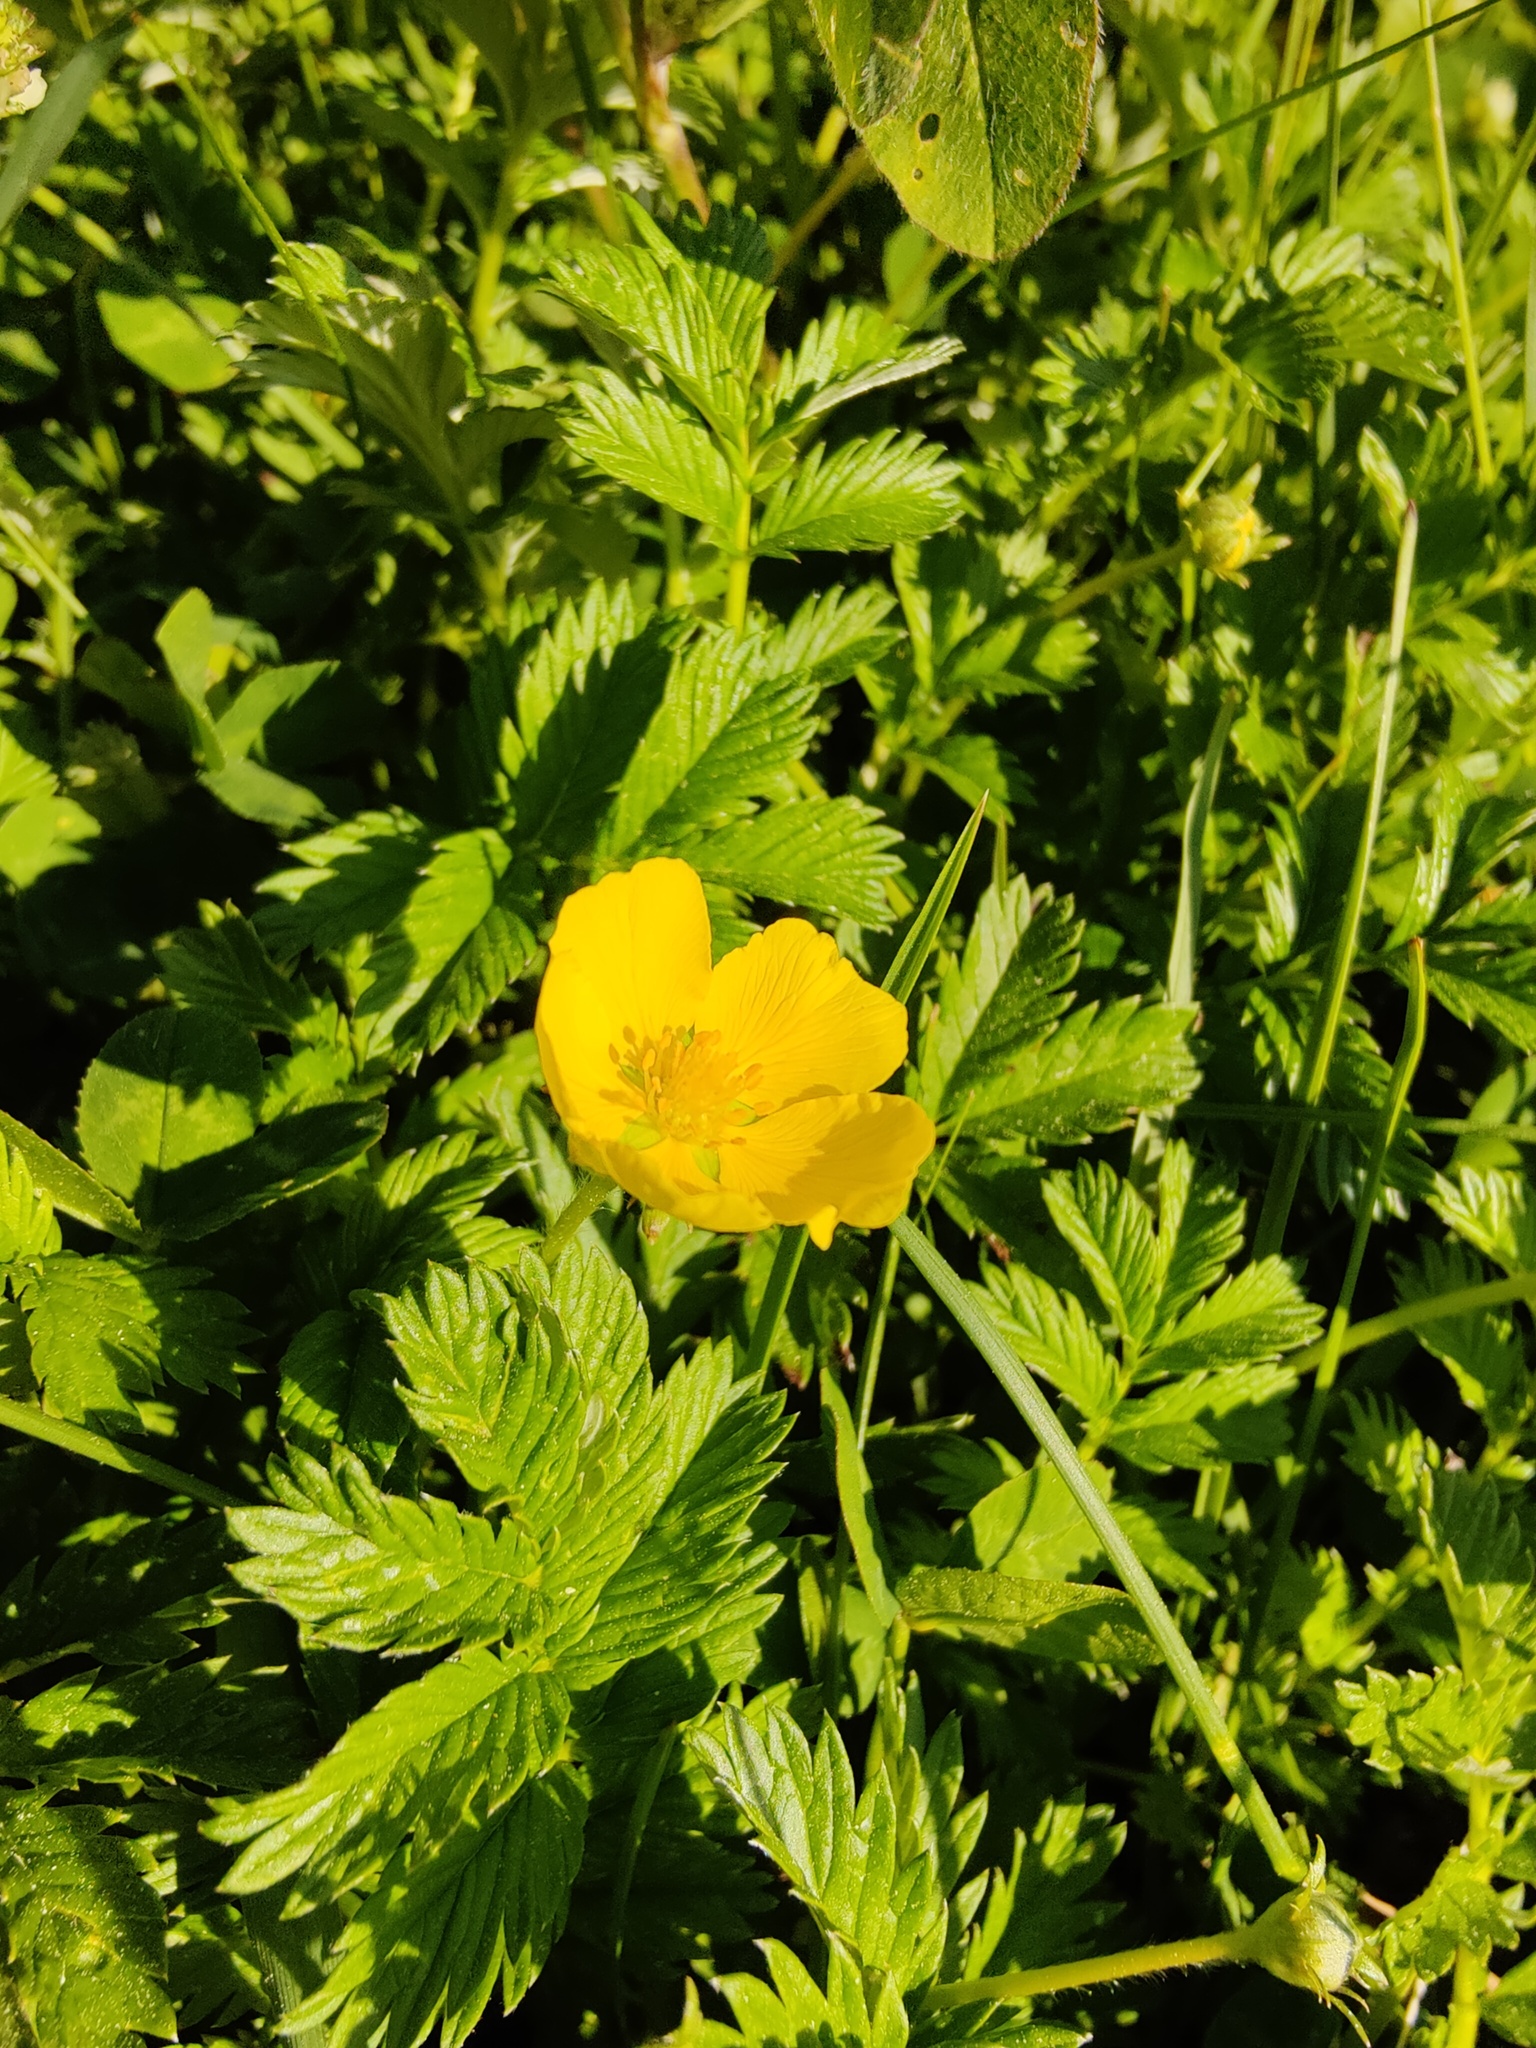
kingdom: Plantae
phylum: Tracheophyta
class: Magnoliopsida
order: Rosales
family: Rosaceae
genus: Argentina
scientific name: Argentina subarctica
